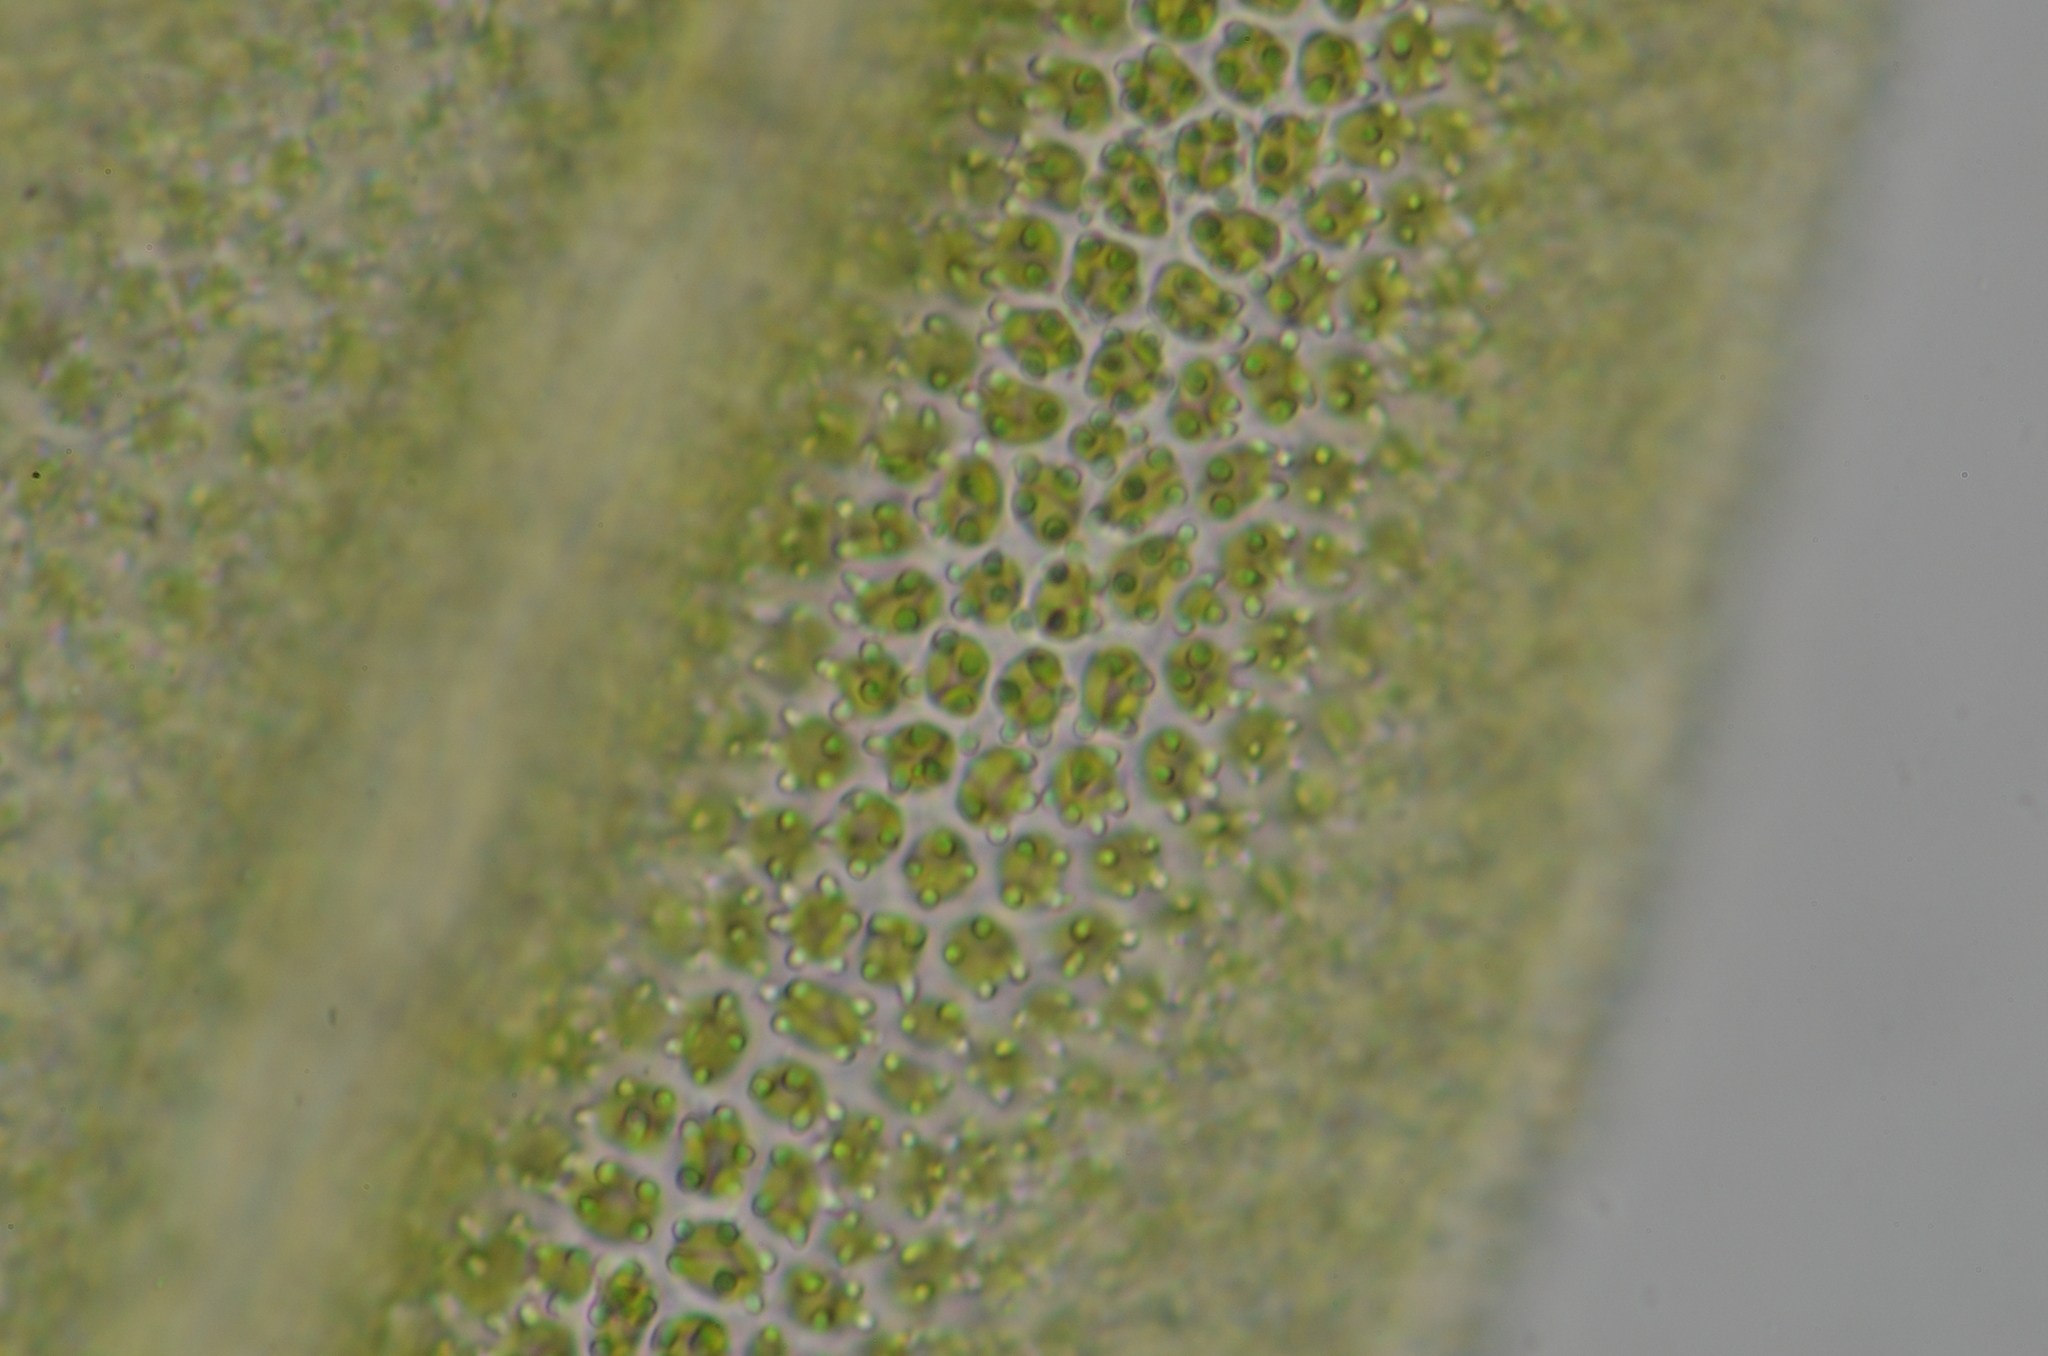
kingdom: Plantae
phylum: Bryophyta
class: Bryopsida
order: Orthotrichales
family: Orthotrichaceae
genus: Zygodon
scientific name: Zygodon viridissimus
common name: Green yoke moss
